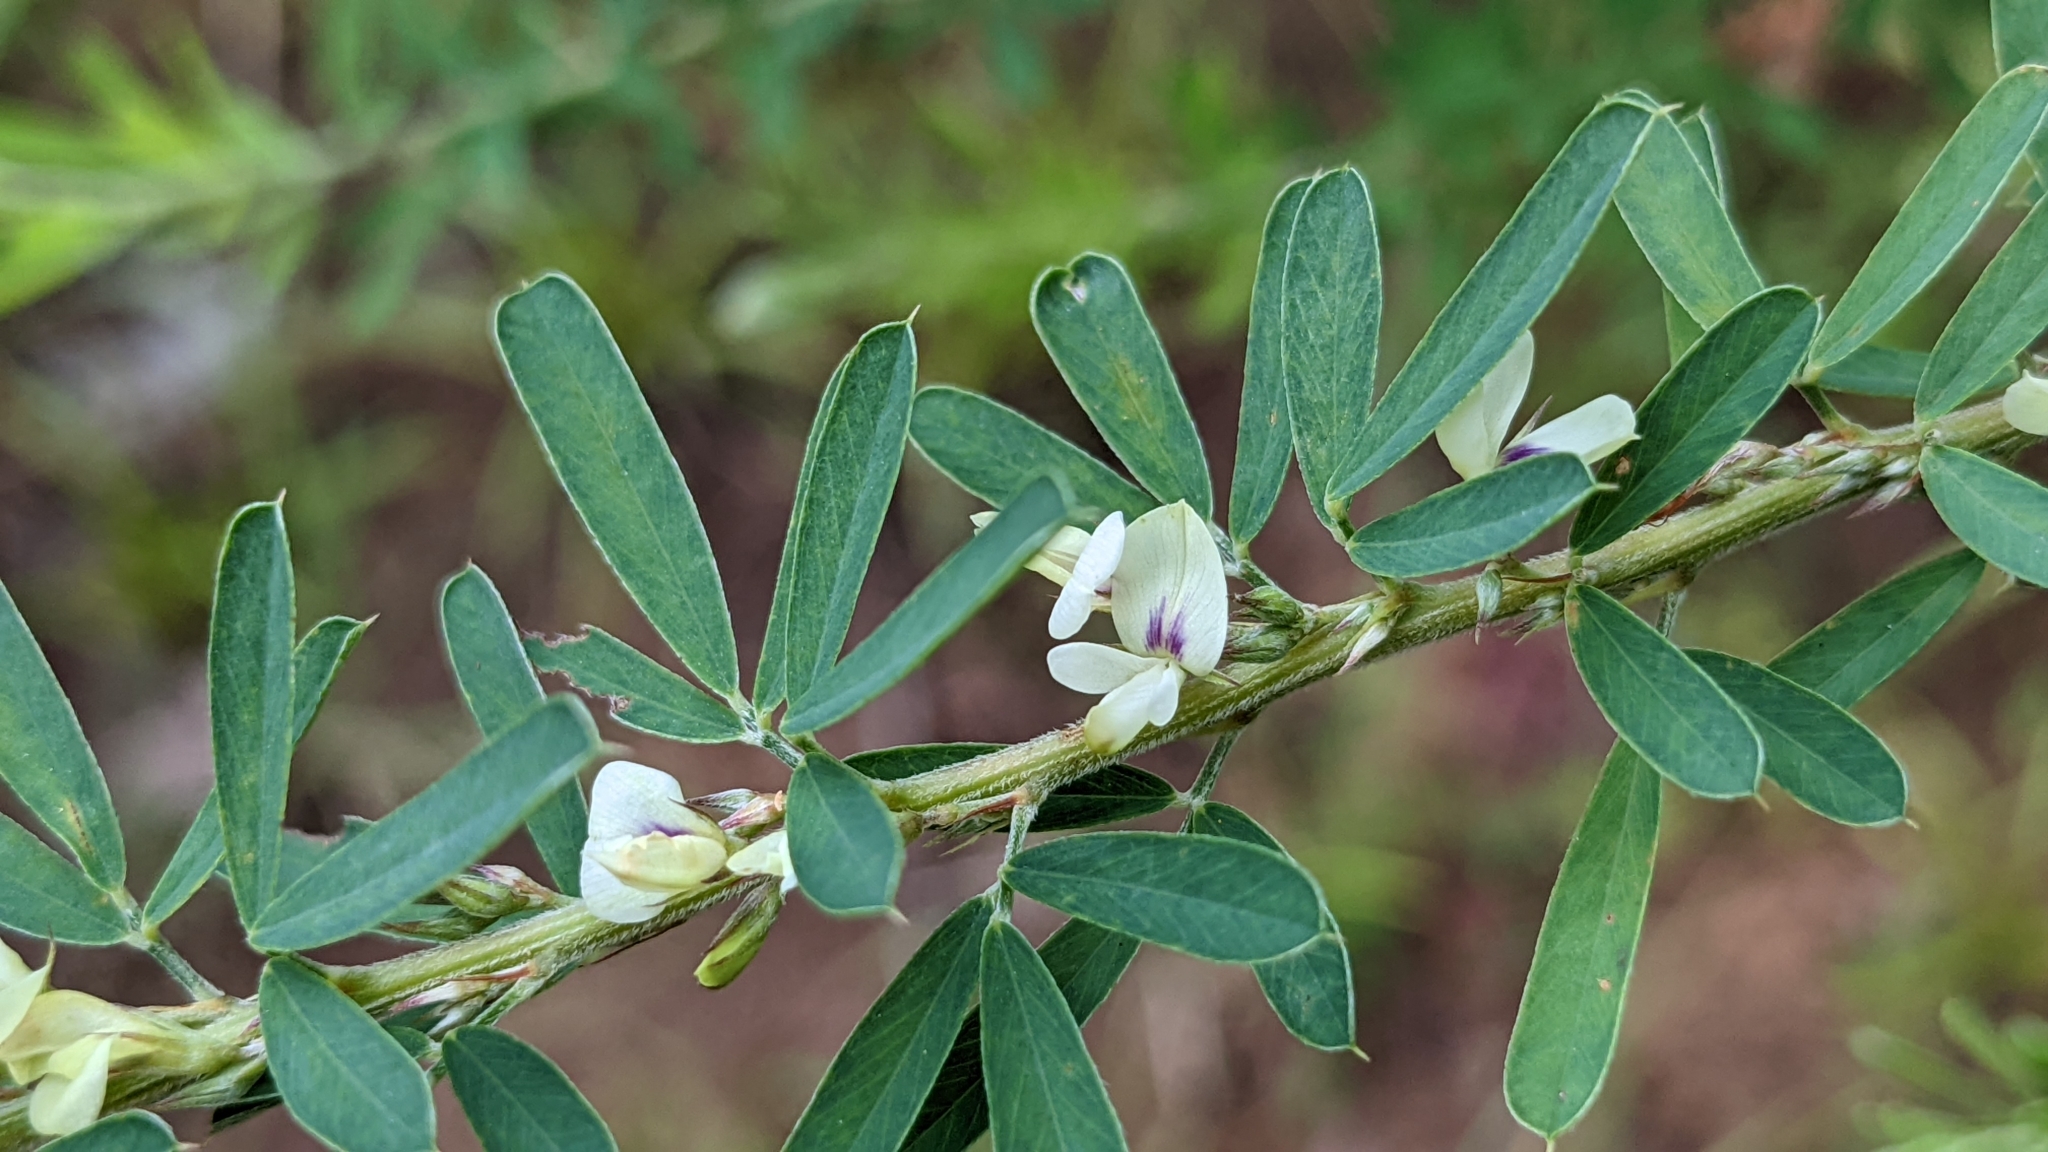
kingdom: Plantae
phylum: Tracheophyta
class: Magnoliopsida
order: Fabales
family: Fabaceae
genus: Lespedeza
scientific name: Lespedeza cuneata
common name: Chinese bush-clover
